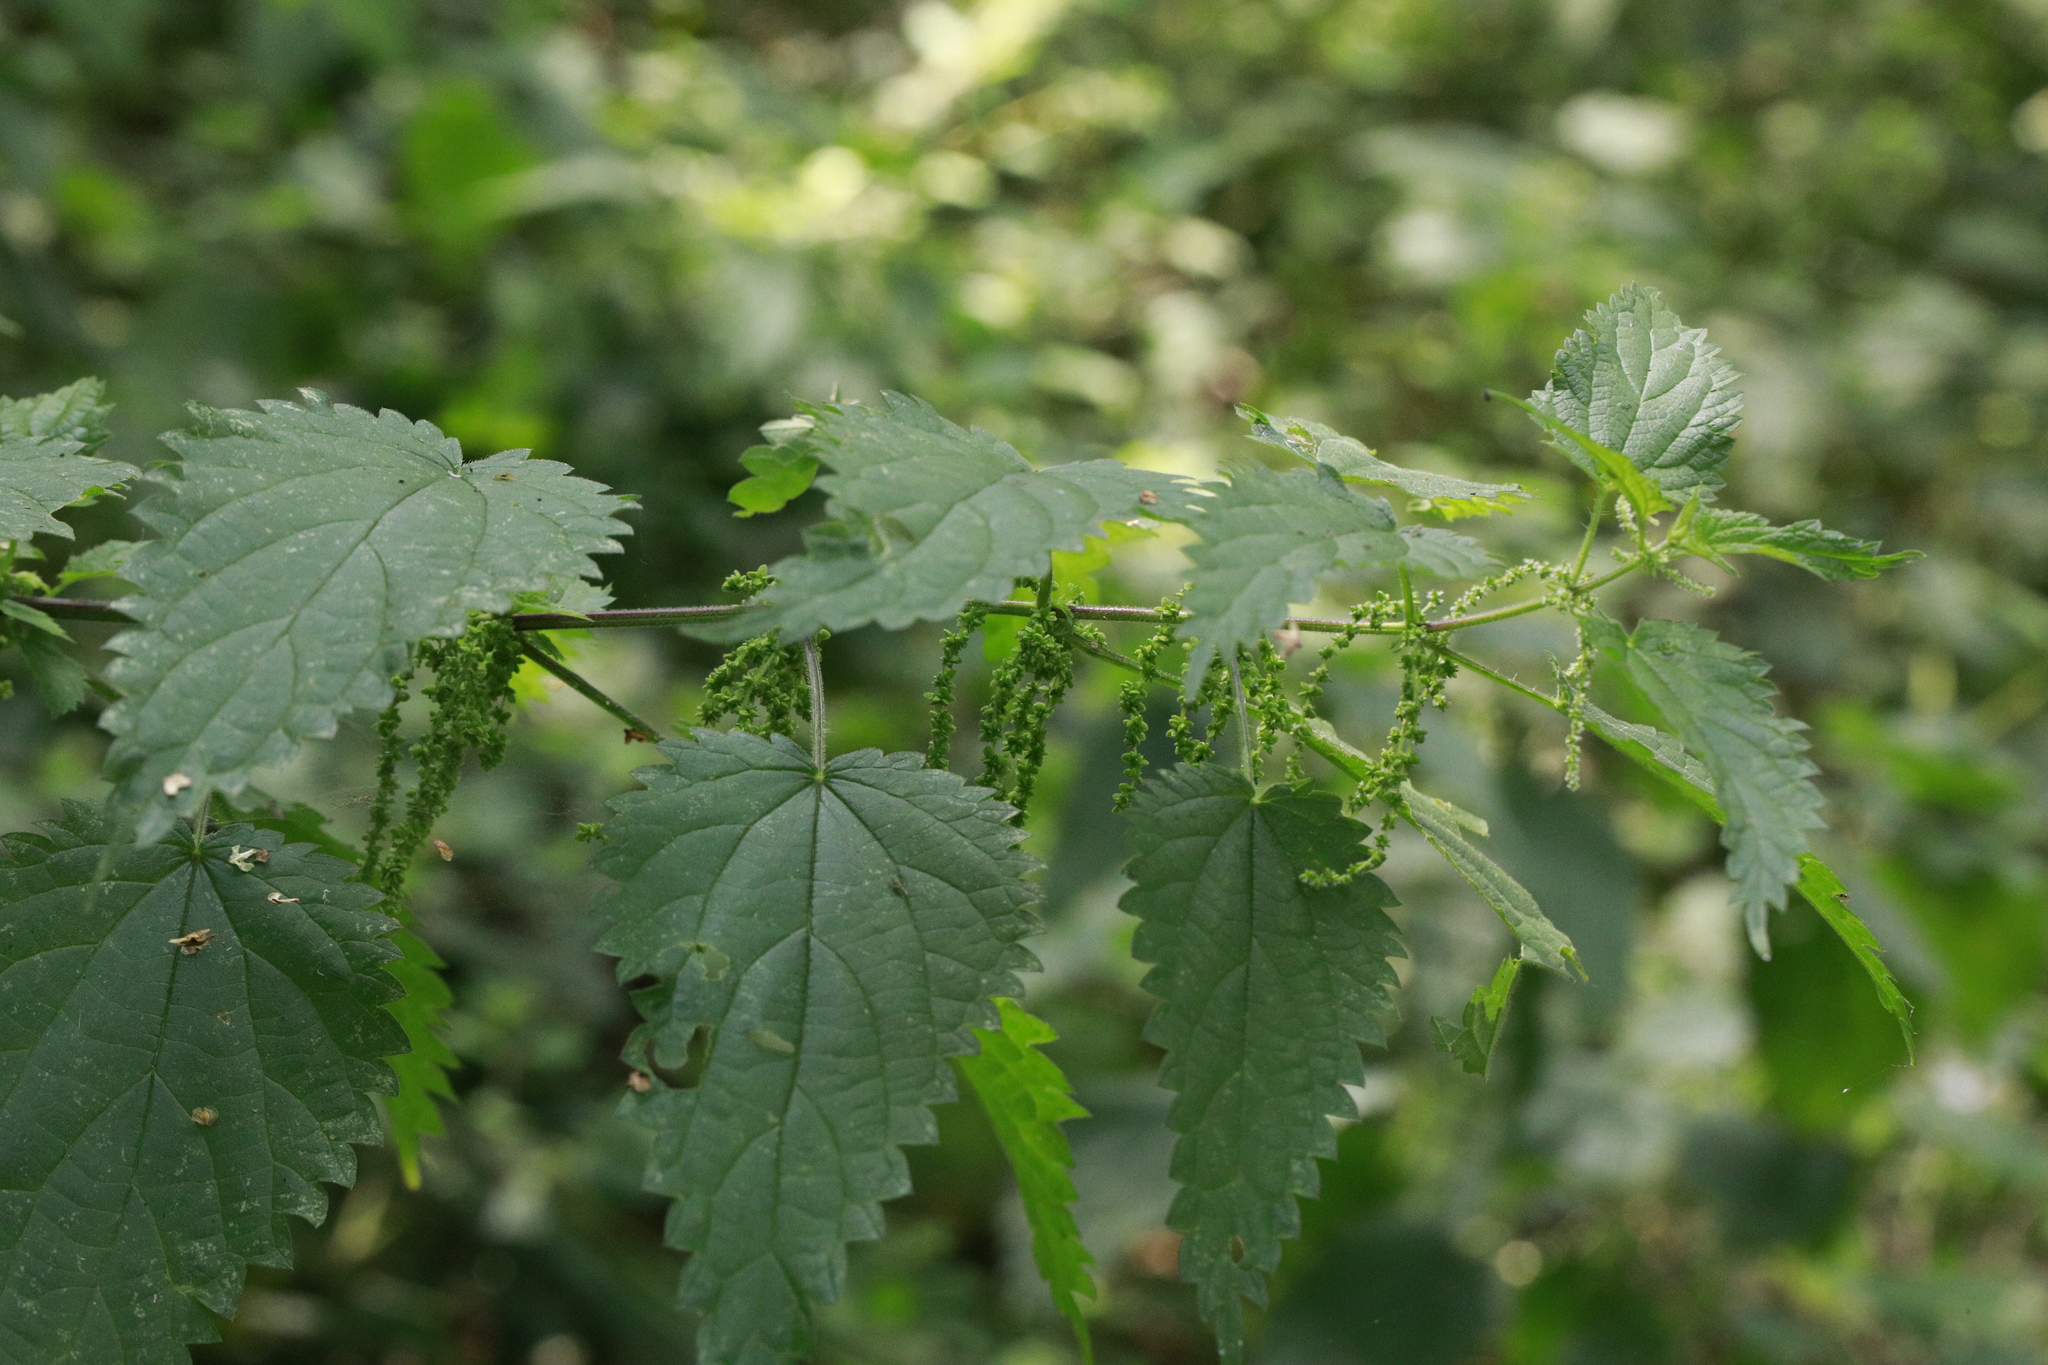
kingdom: Plantae
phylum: Tracheophyta
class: Magnoliopsida
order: Rosales
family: Urticaceae
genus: Urtica
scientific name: Urtica dioica
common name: Common nettle
